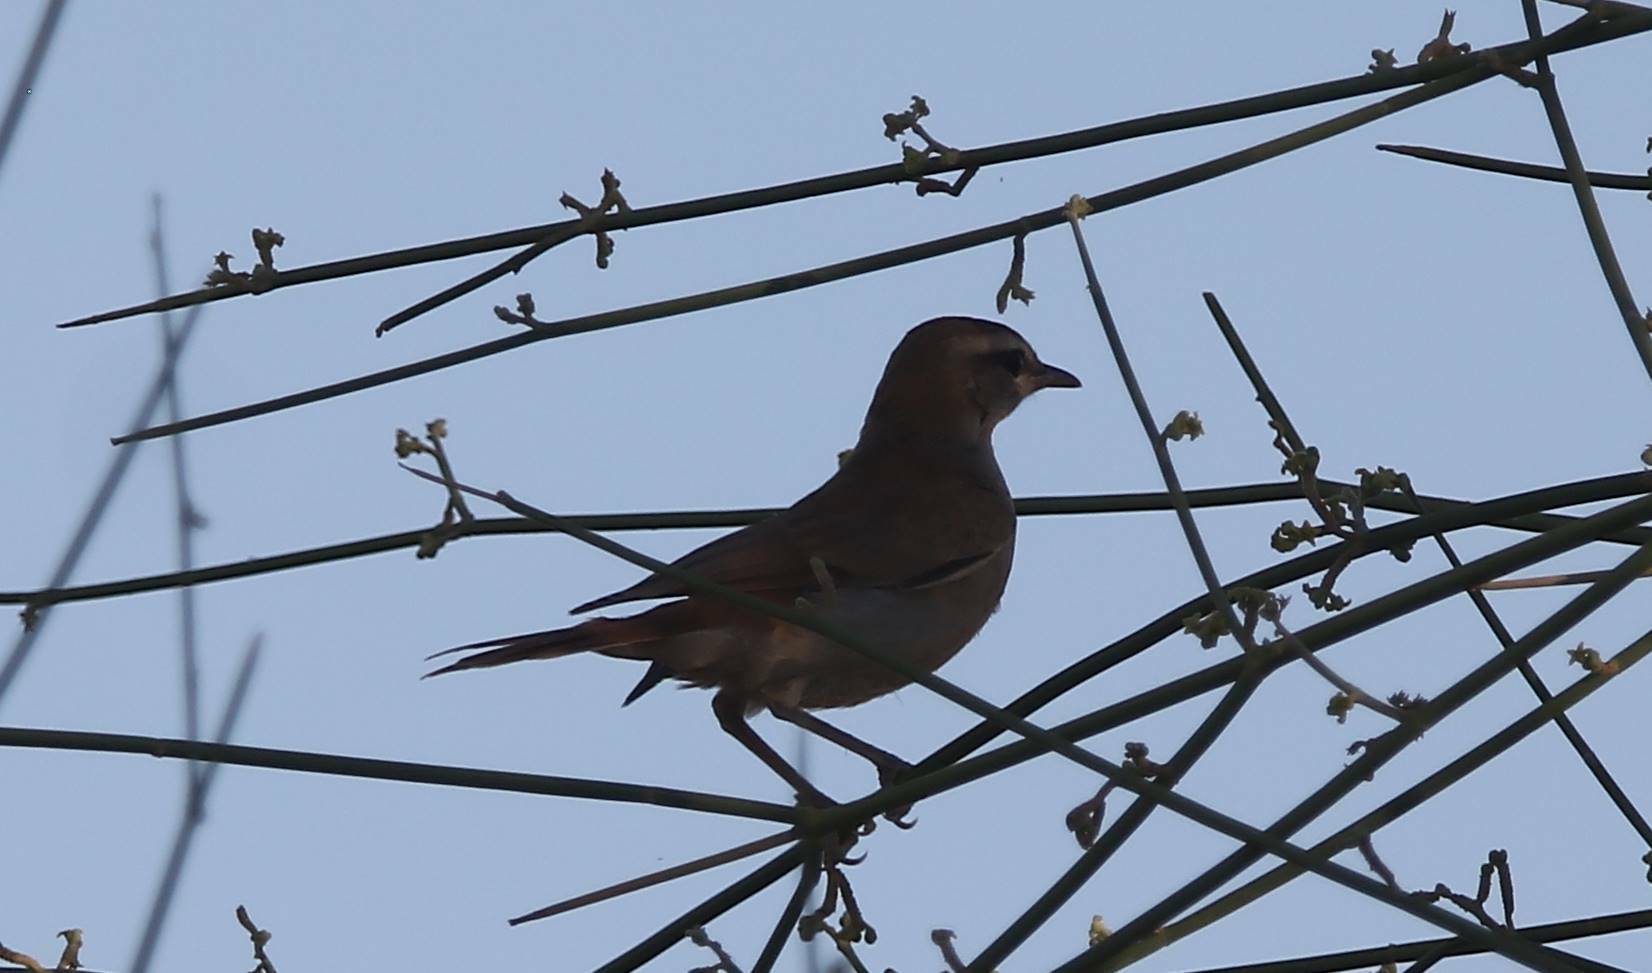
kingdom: Animalia
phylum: Chordata
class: Aves
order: Passeriformes
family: Muscicapidae
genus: Erythropygia
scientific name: Erythropygia galactotes
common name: Rufous-tailed scrub robin
